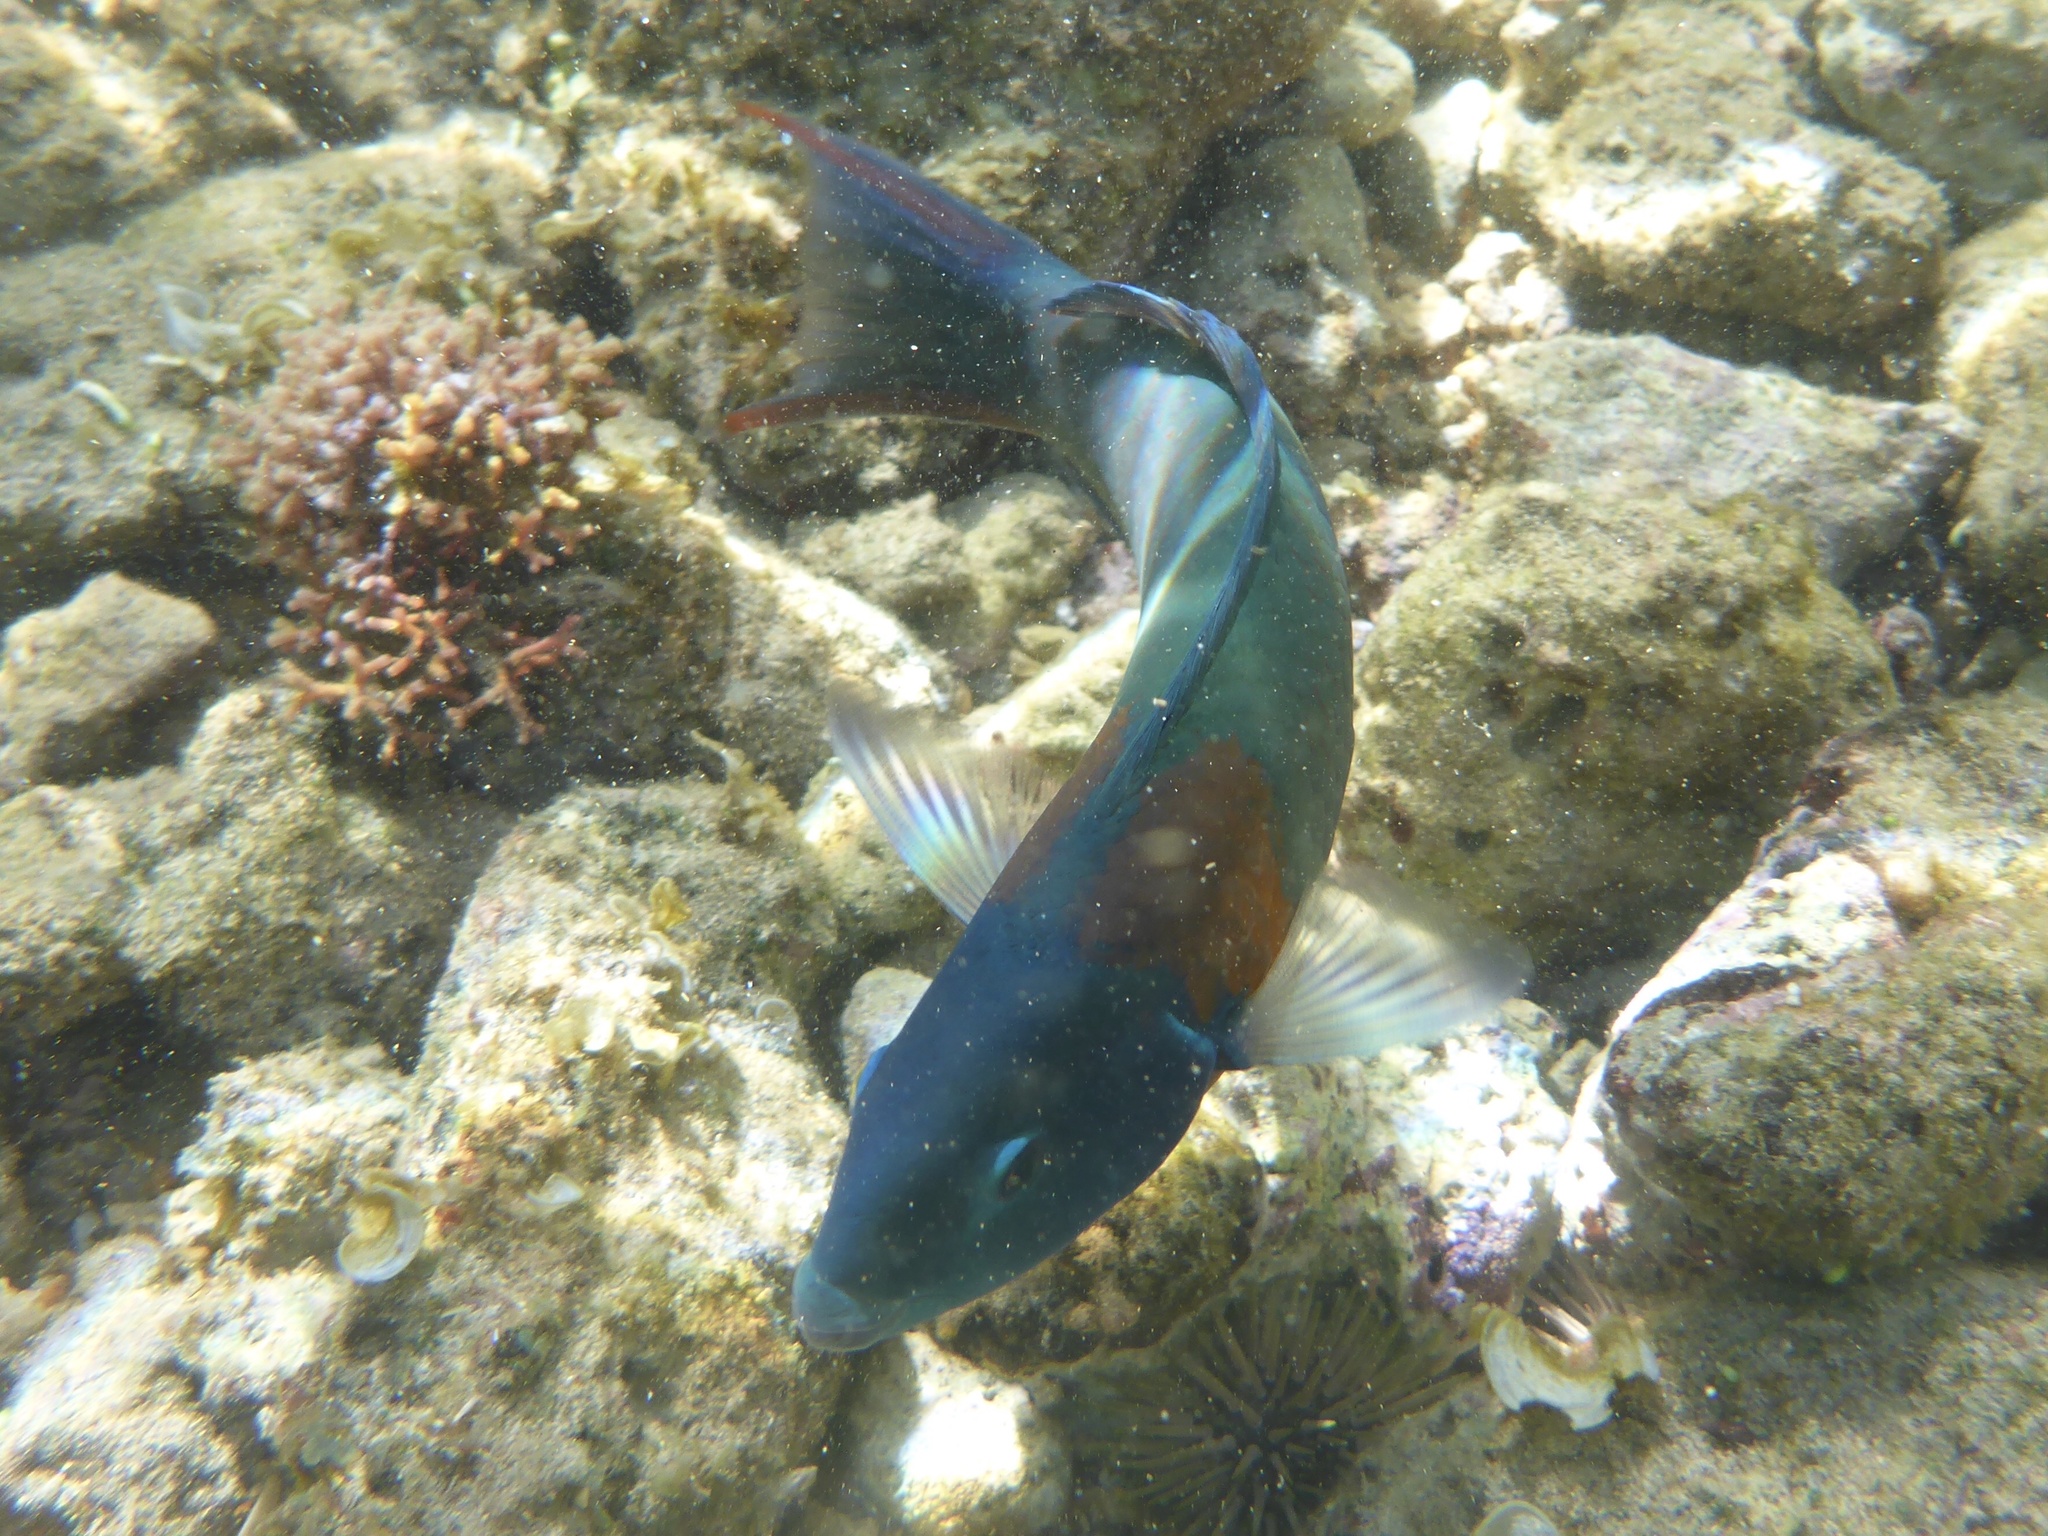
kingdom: Animalia
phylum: Chordata
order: Perciformes
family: Labridae
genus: Thalassoma
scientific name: Thalassoma duperrey
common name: Saddle wrasse
